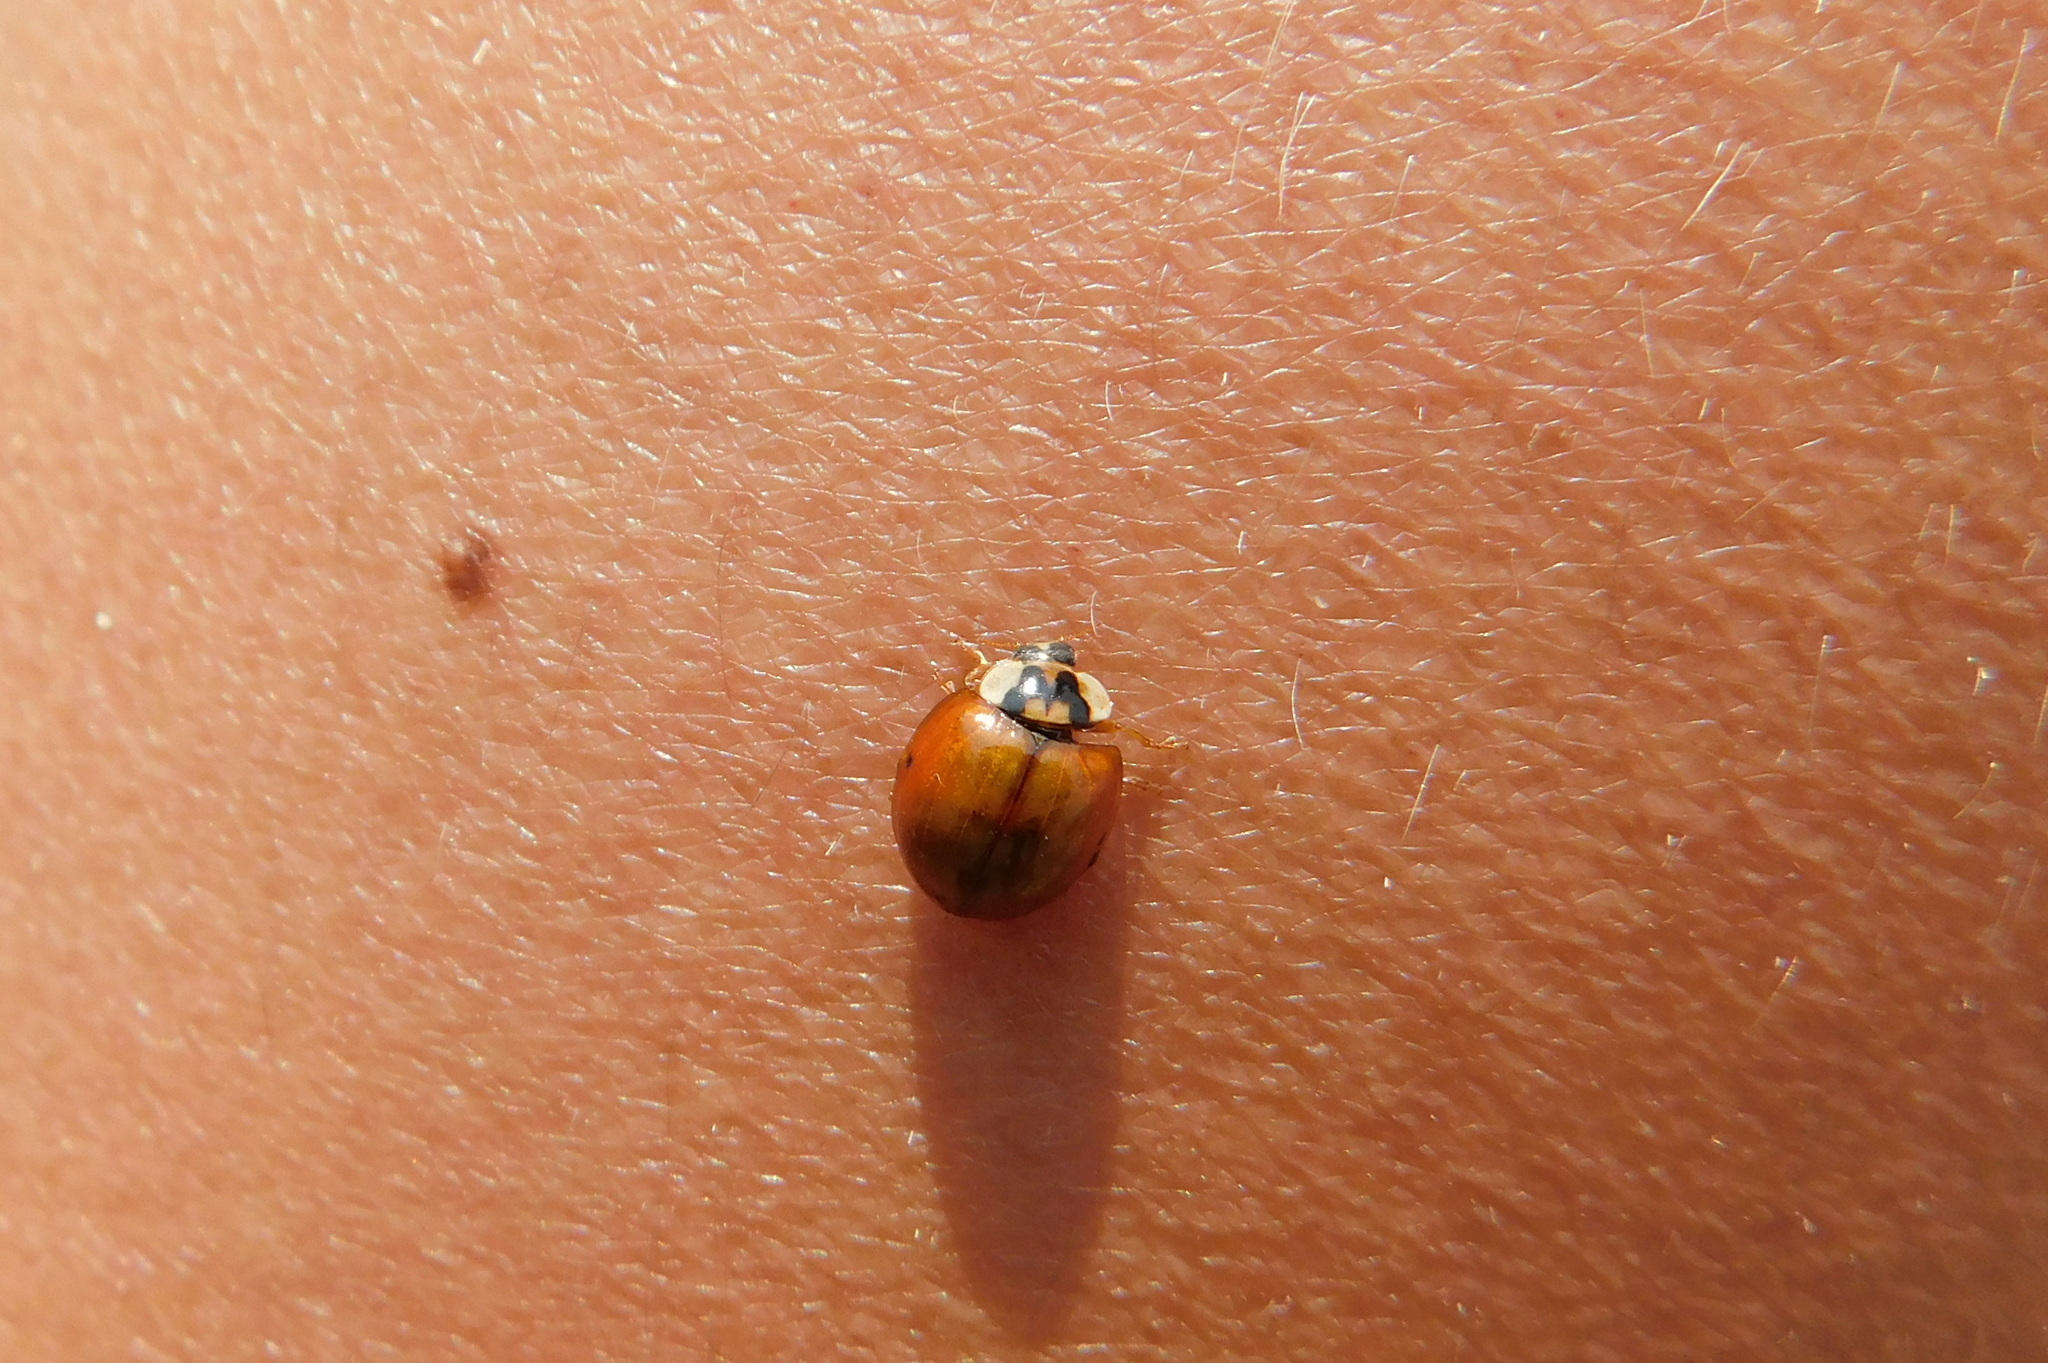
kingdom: Animalia
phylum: Arthropoda
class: Insecta
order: Coleoptera
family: Coccinellidae
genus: Harmonia
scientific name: Harmonia axyridis
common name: Harlequin ladybird
